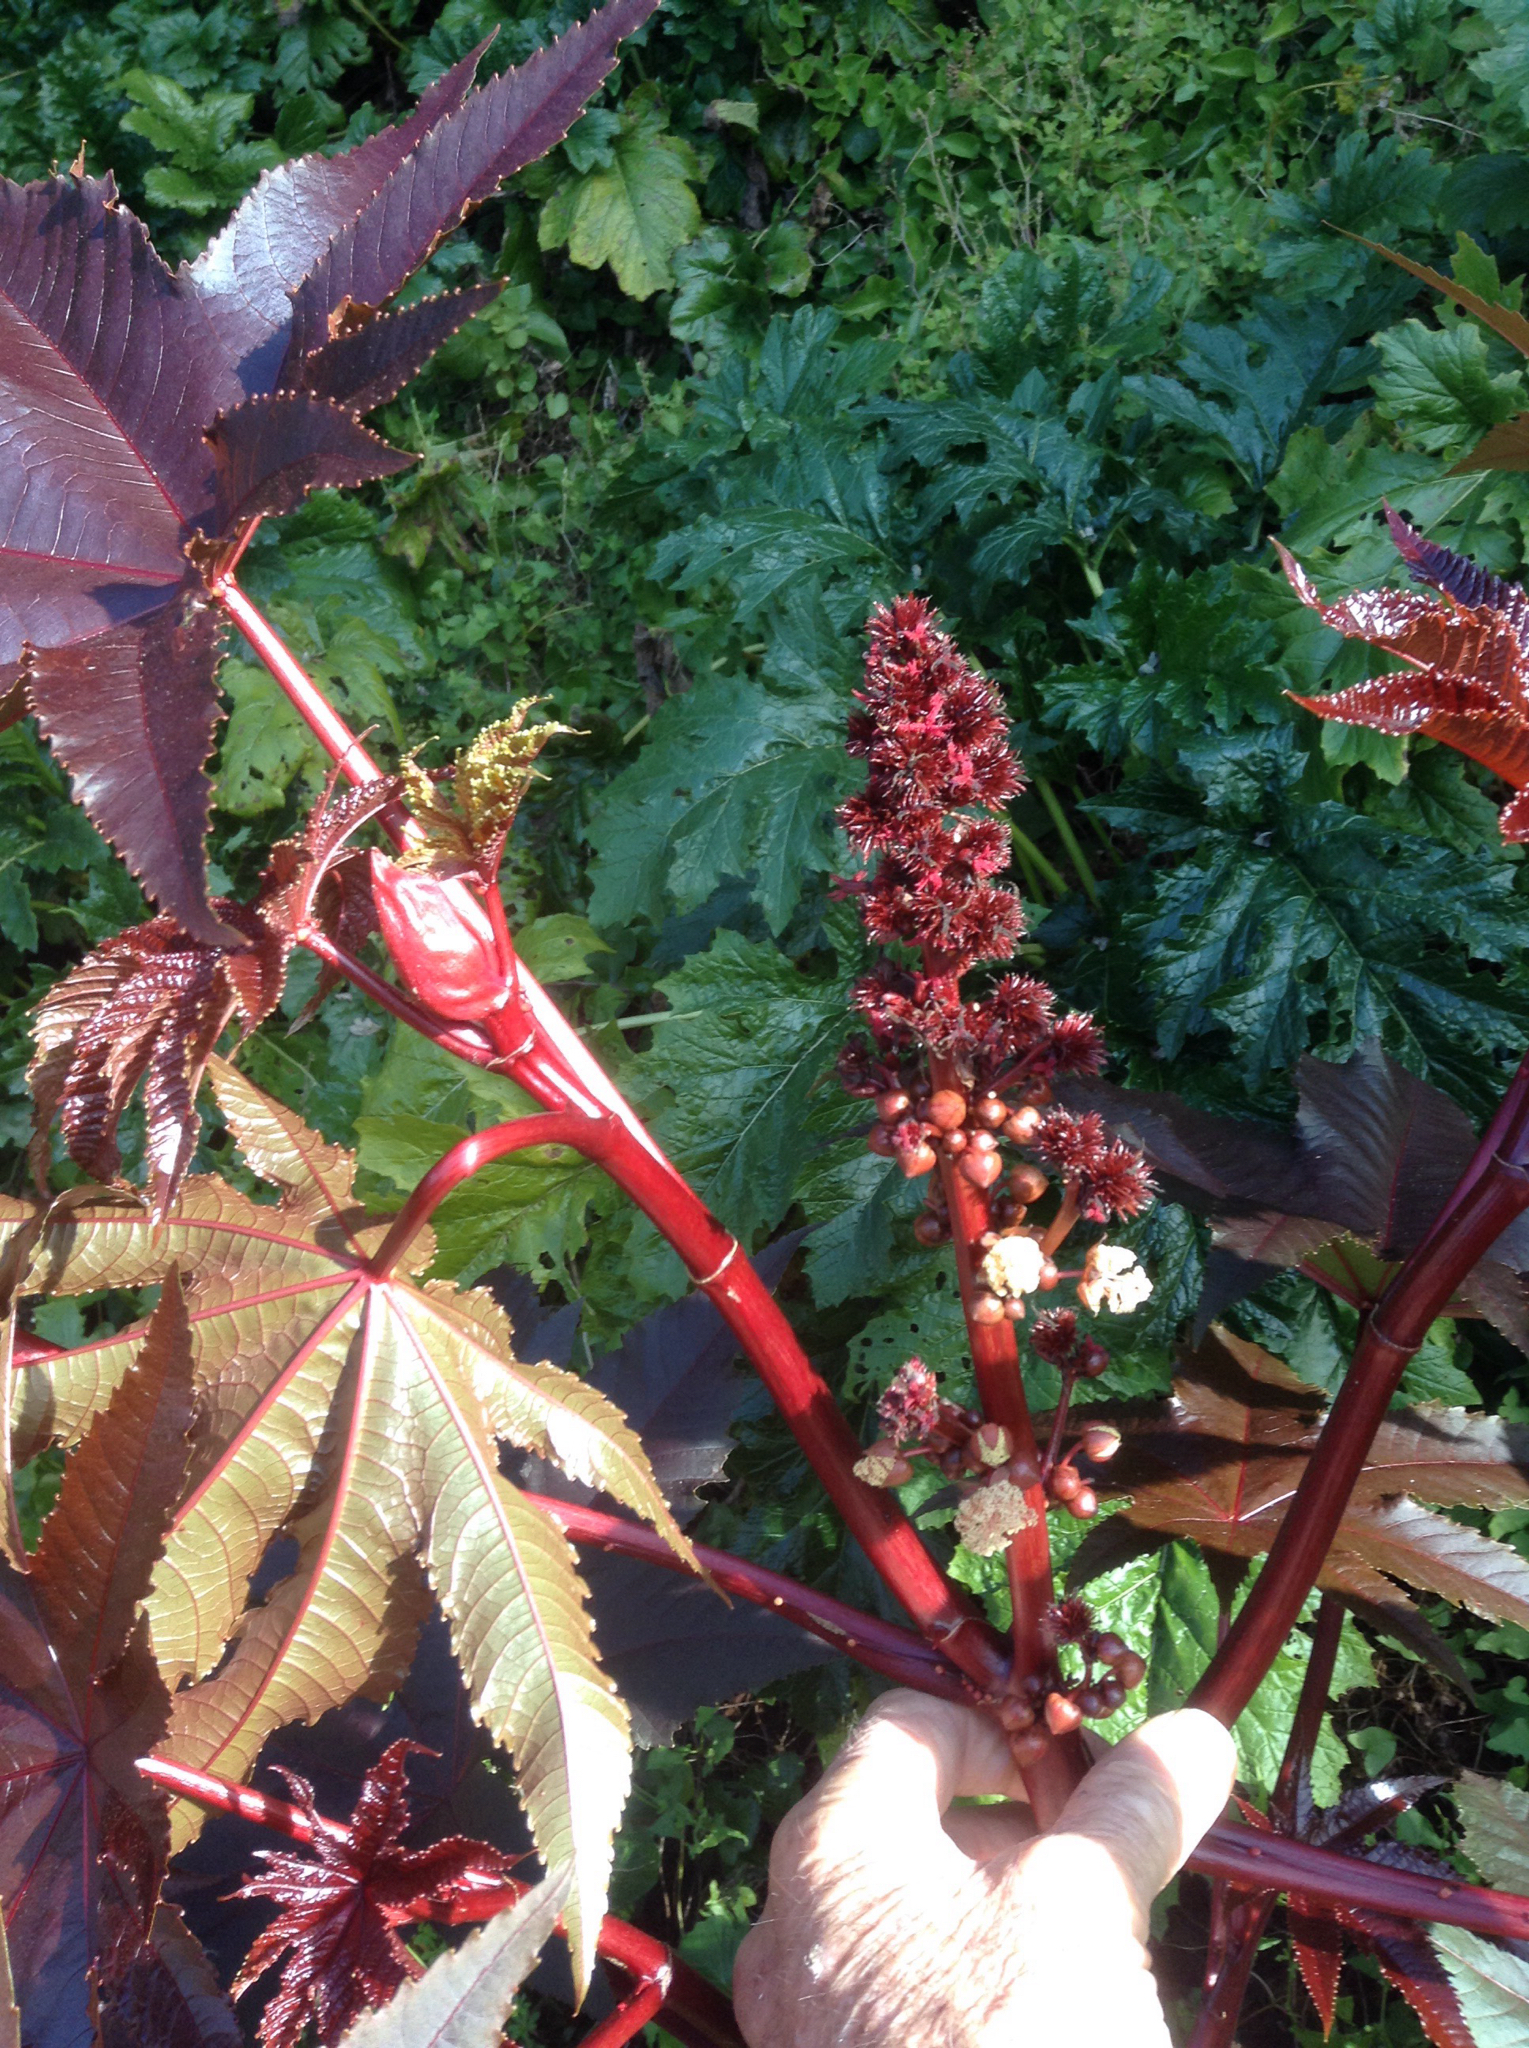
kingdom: Plantae
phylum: Tracheophyta
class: Magnoliopsida
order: Malpighiales
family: Euphorbiaceae
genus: Ricinus
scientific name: Ricinus communis
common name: Castor-oil-plant
